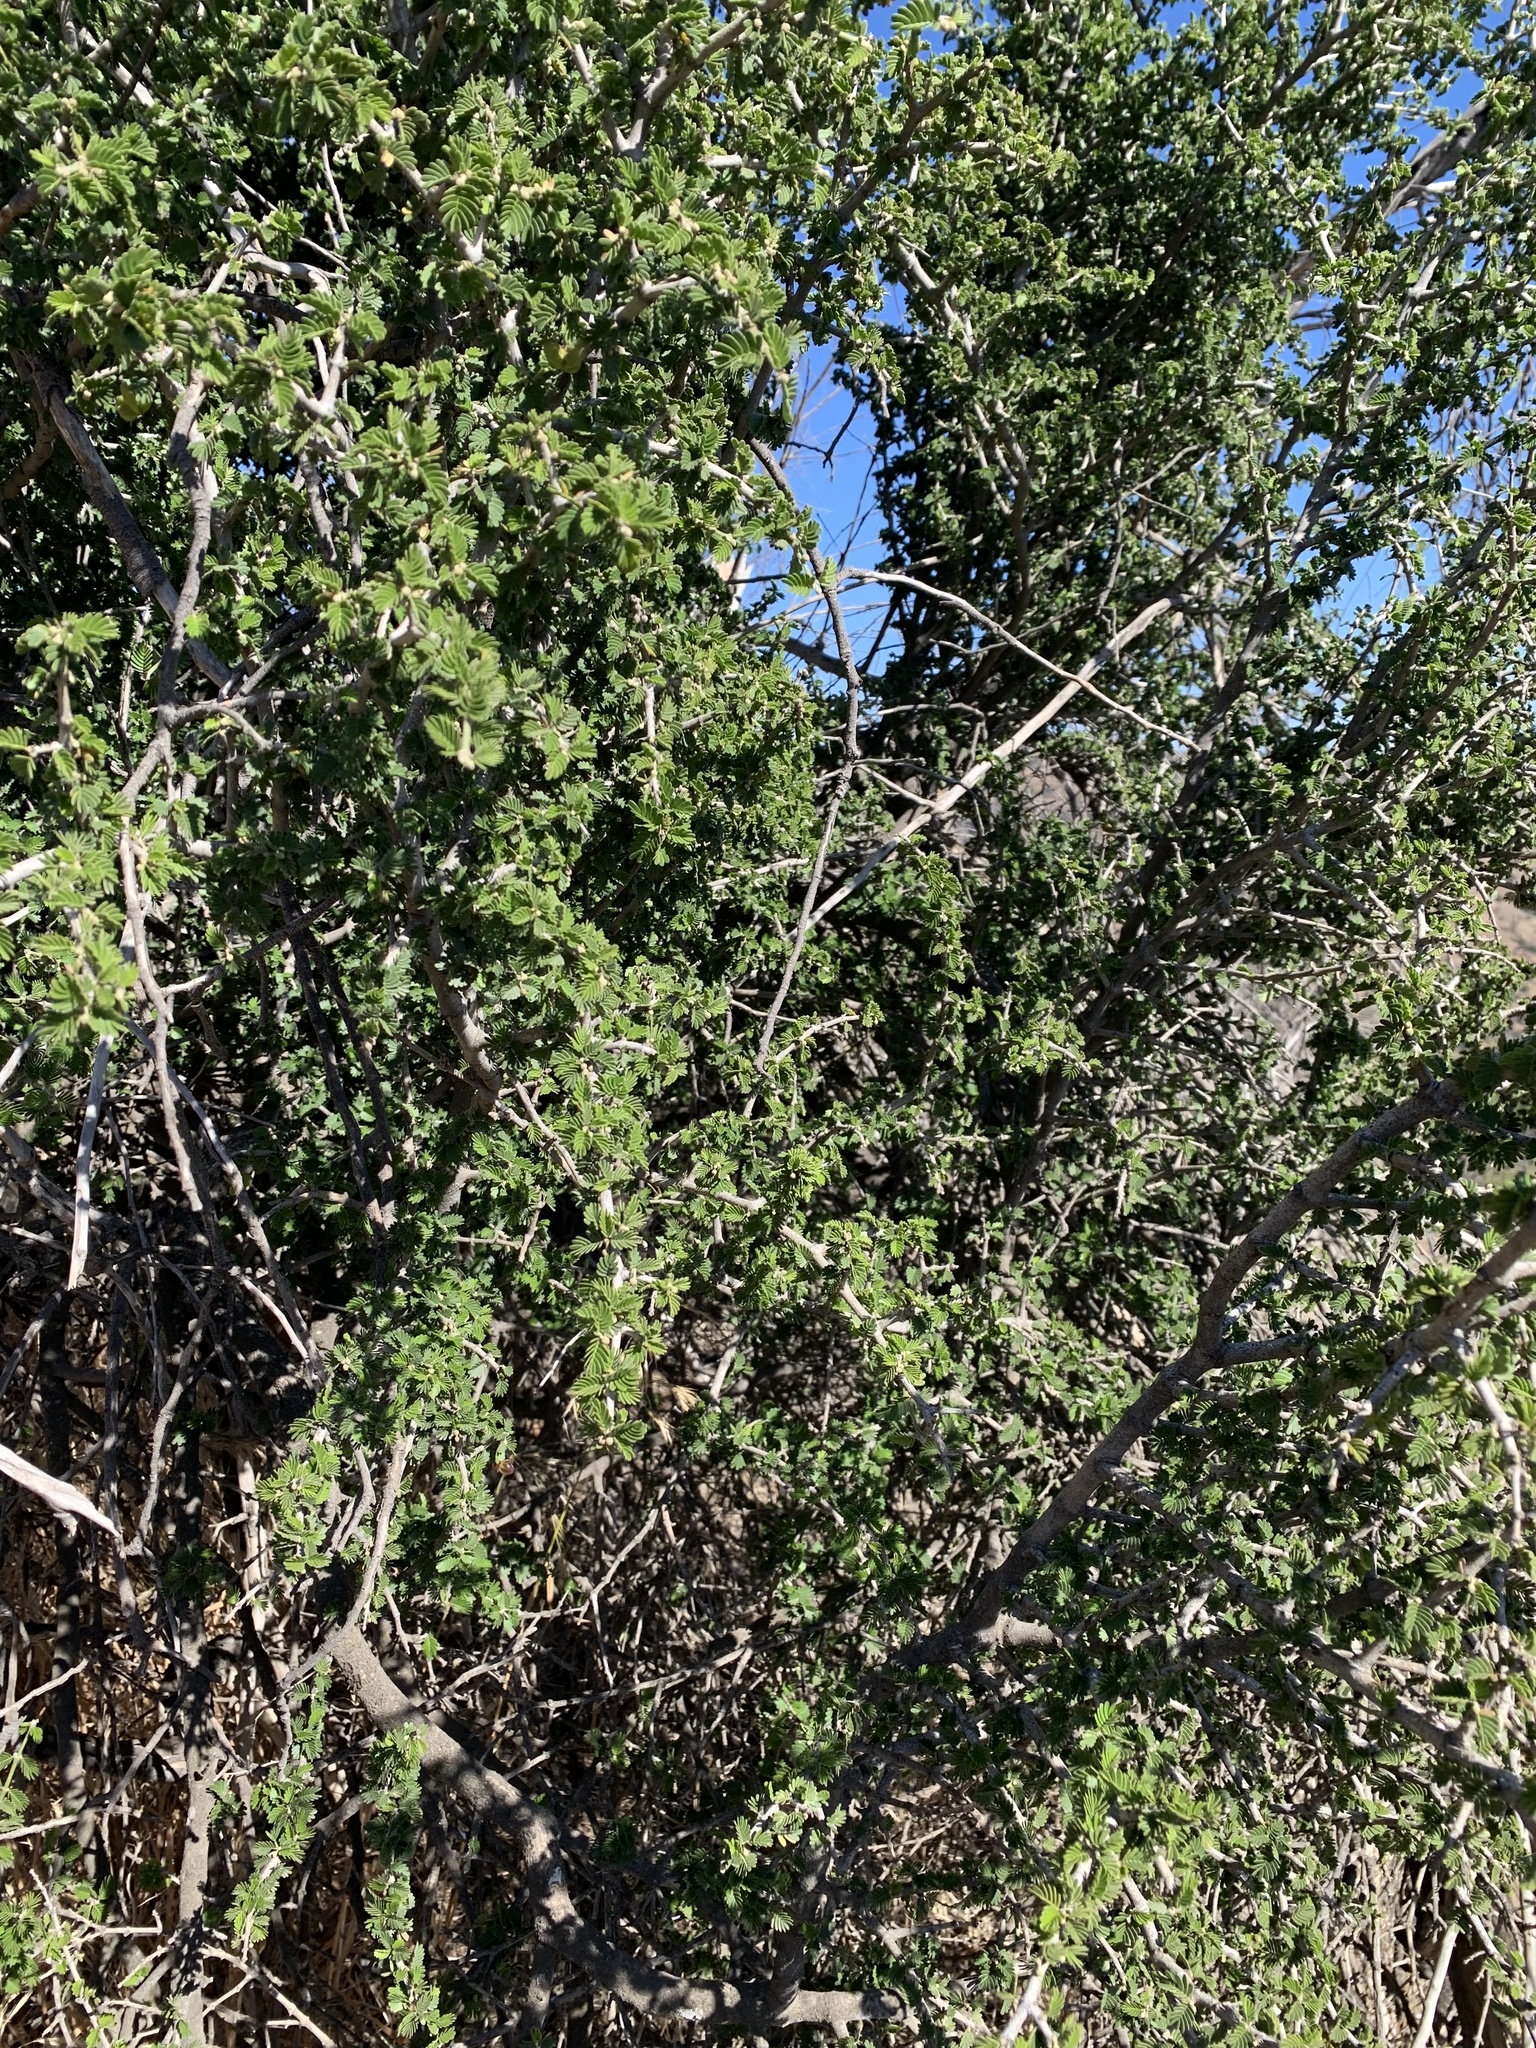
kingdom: Plantae
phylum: Tracheophyta
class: Magnoliopsida
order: Zygophyllales
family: Zygophyllaceae
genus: Porlieria
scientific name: Porlieria chilensis
